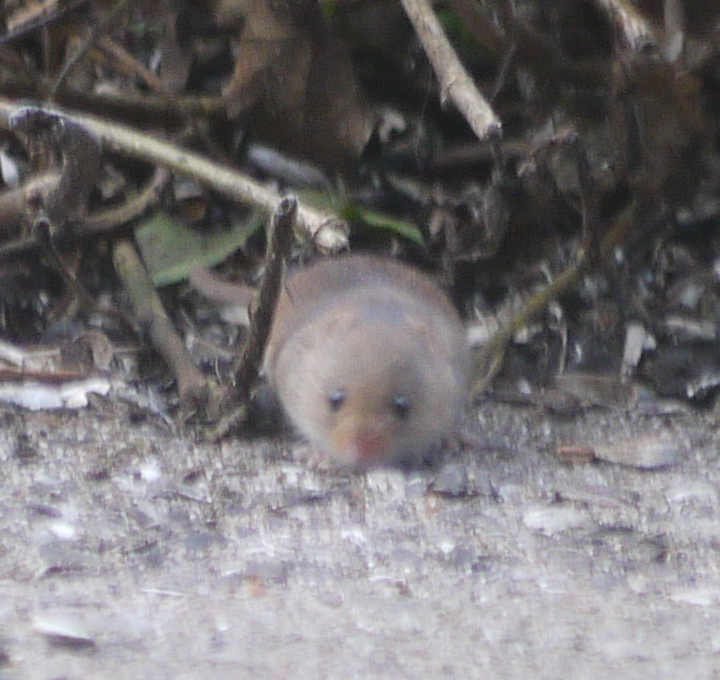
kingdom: Animalia
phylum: Chordata
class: Mammalia
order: Rodentia
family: Muridae
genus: Micromys
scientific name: Micromys minutus
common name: Harvest mouse
